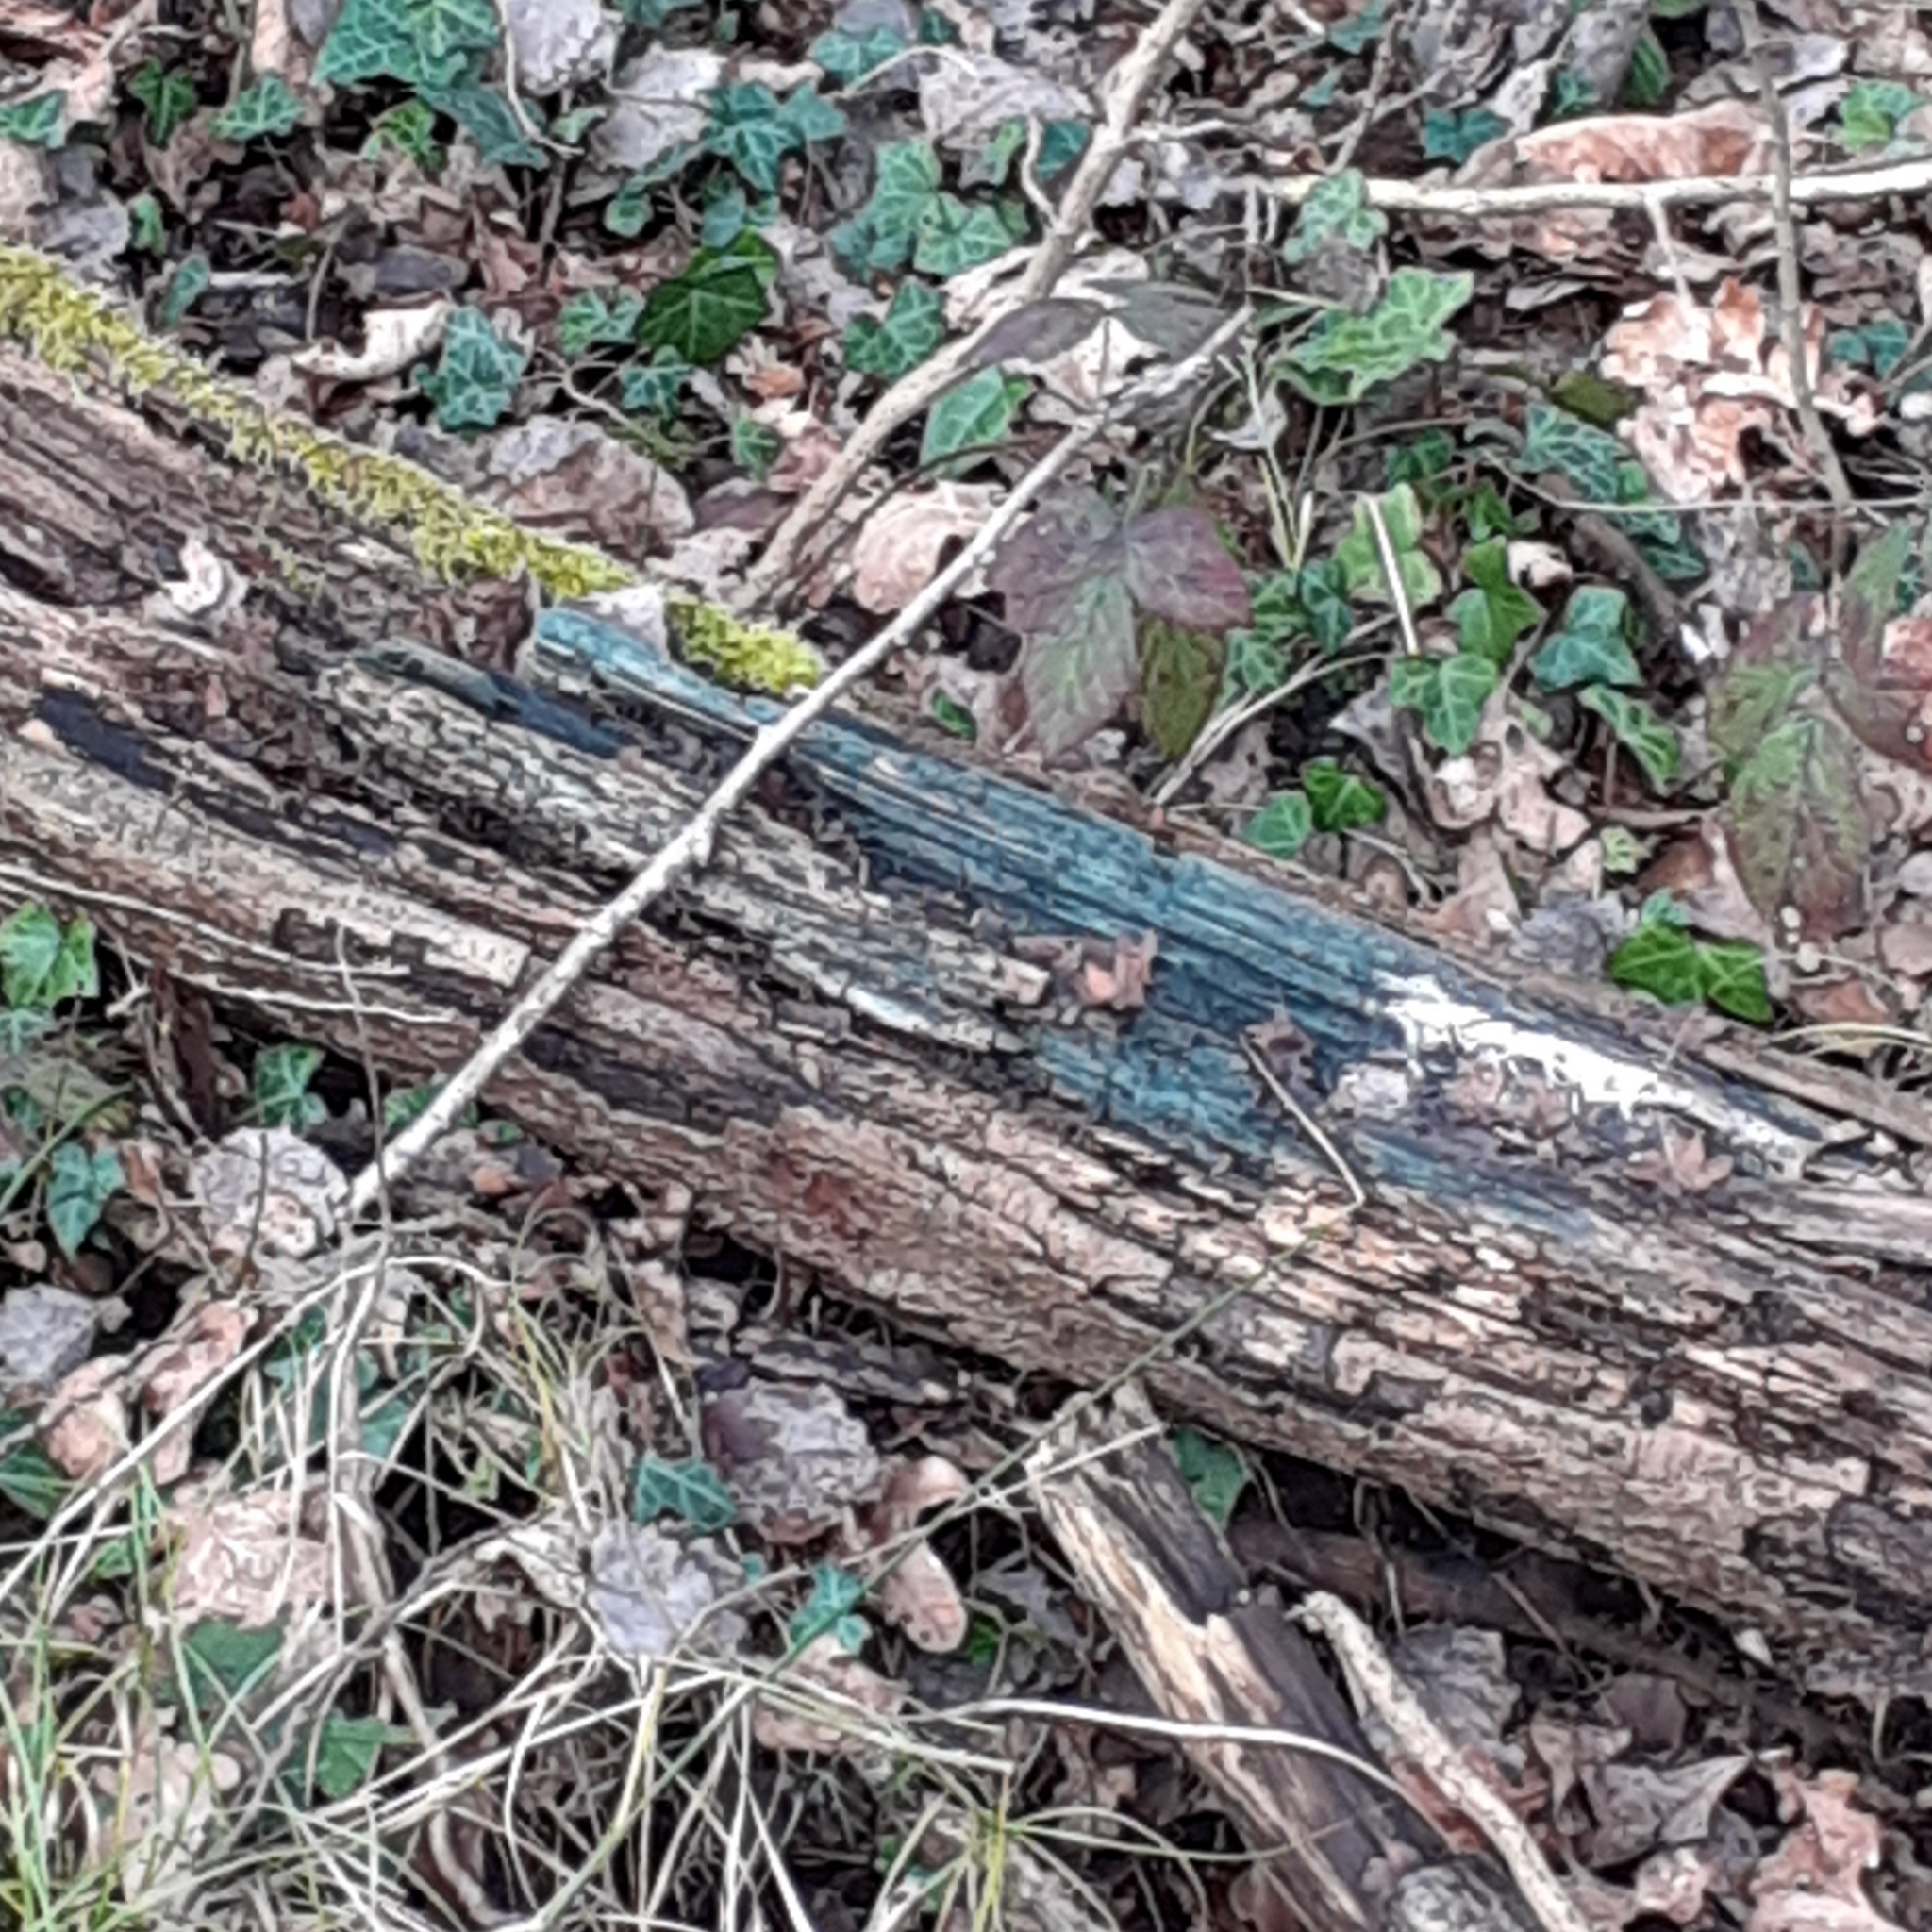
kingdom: Fungi
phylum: Ascomycota
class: Leotiomycetes
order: Helotiales
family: Chlorociboriaceae
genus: Chlorociboria
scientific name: Chlorociboria
